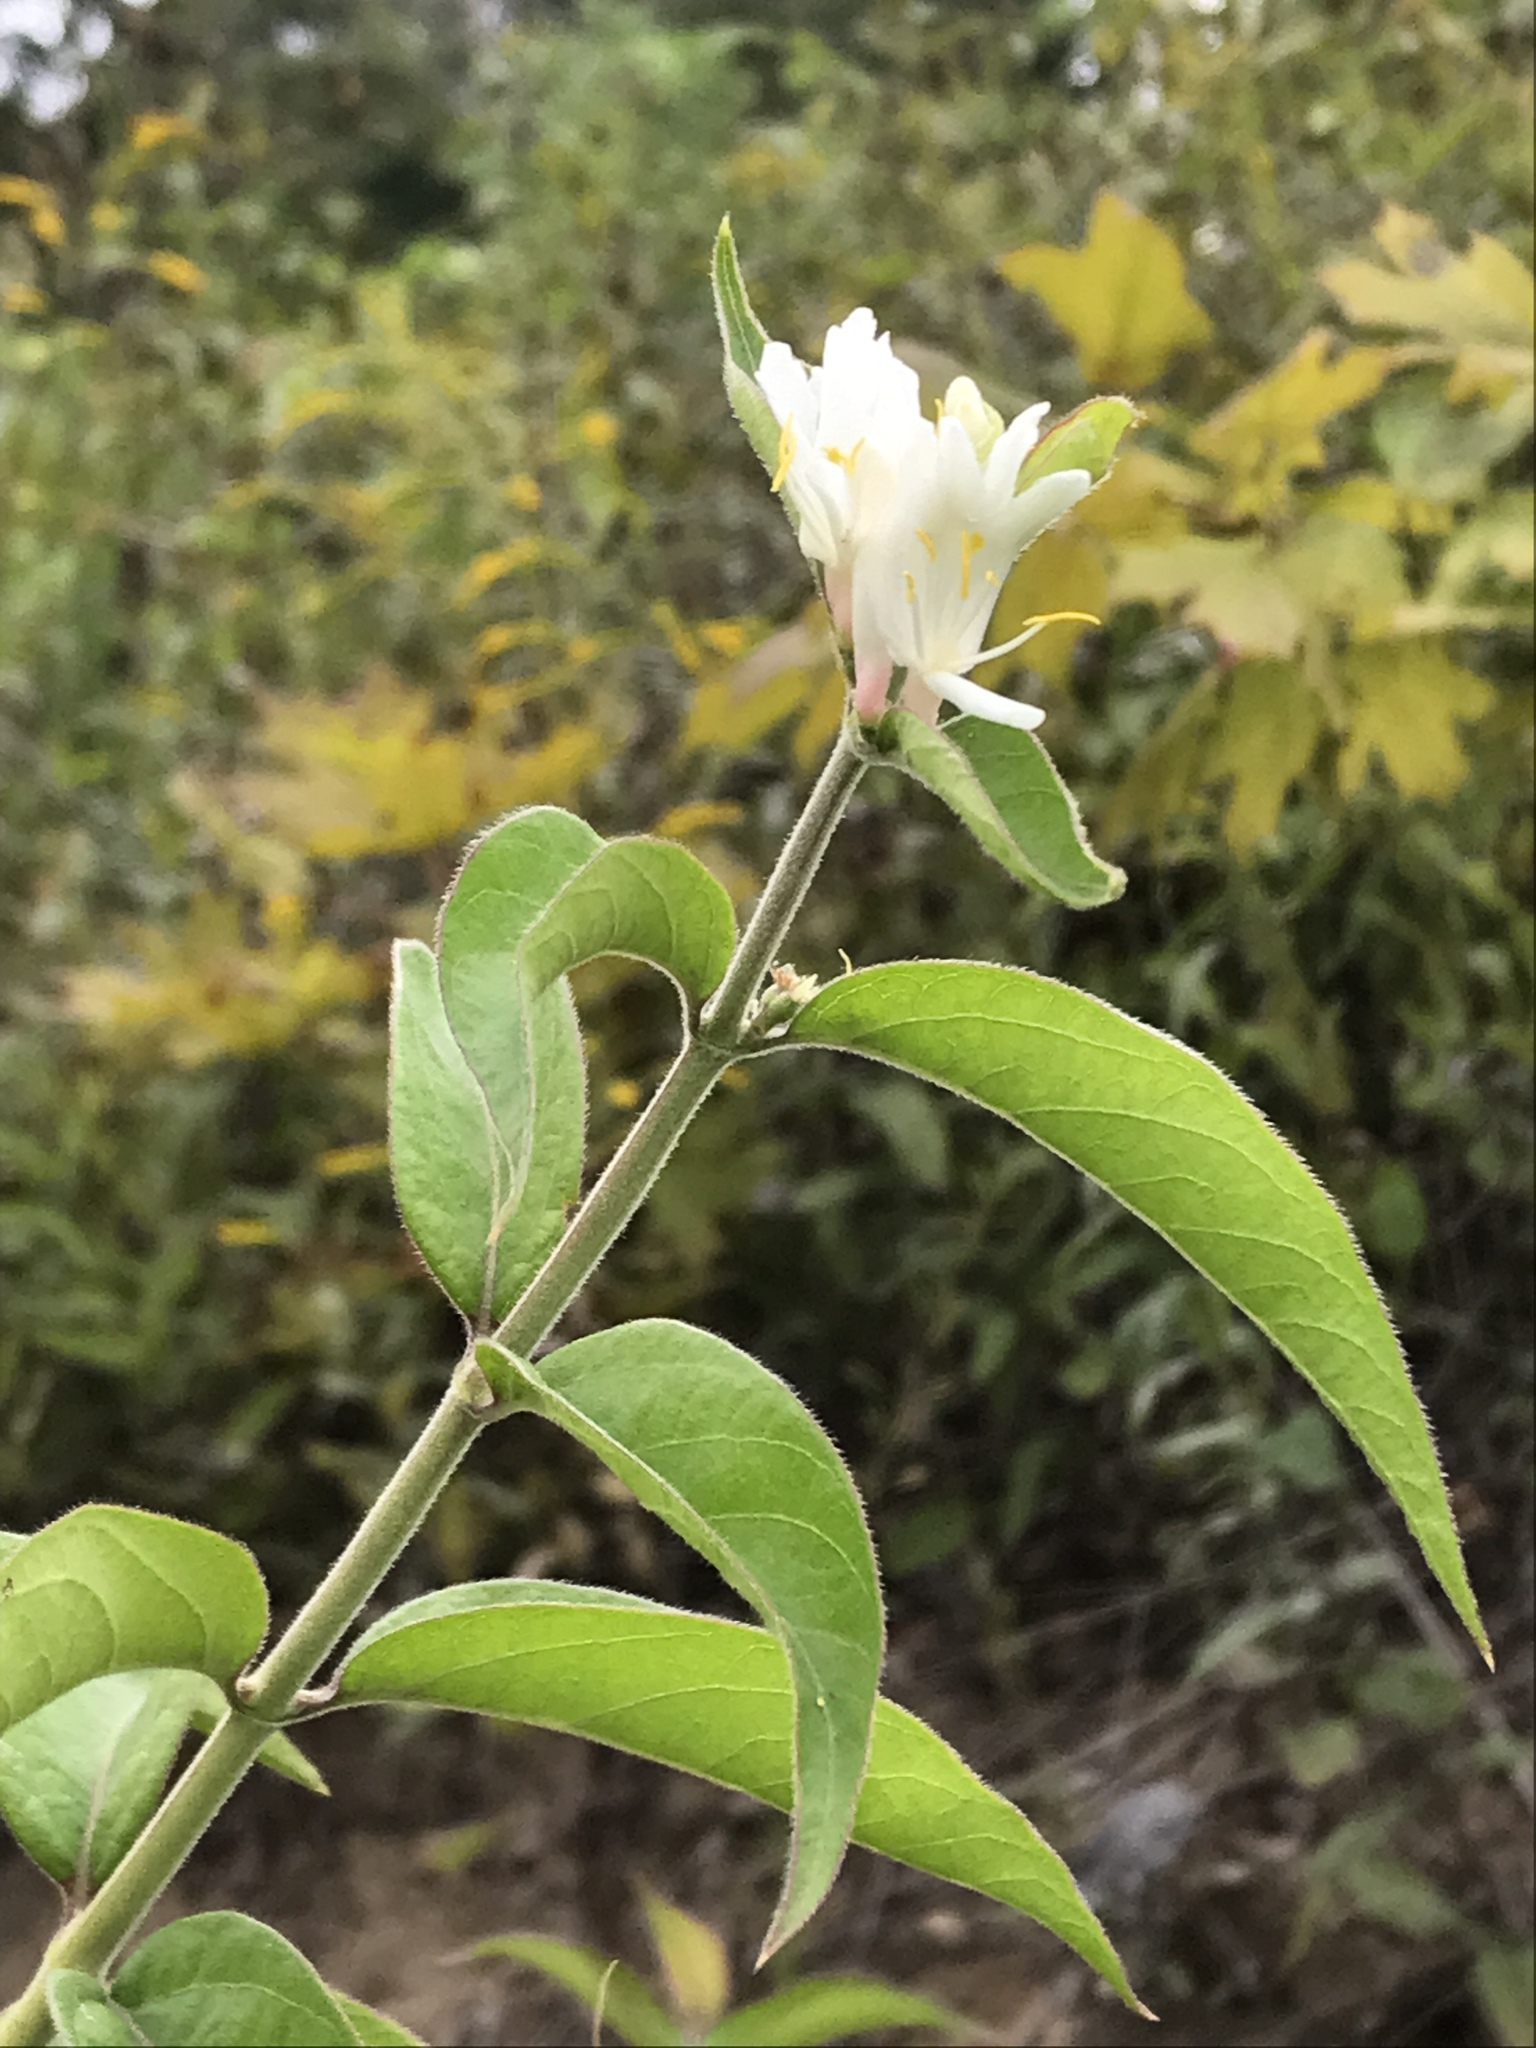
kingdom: Plantae
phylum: Tracheophyta
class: Magnoliopsida
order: Dipsacales
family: Caprifoliaceae
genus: Lonicera
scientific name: Lonicera japonica
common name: Japanese honeysuckle
